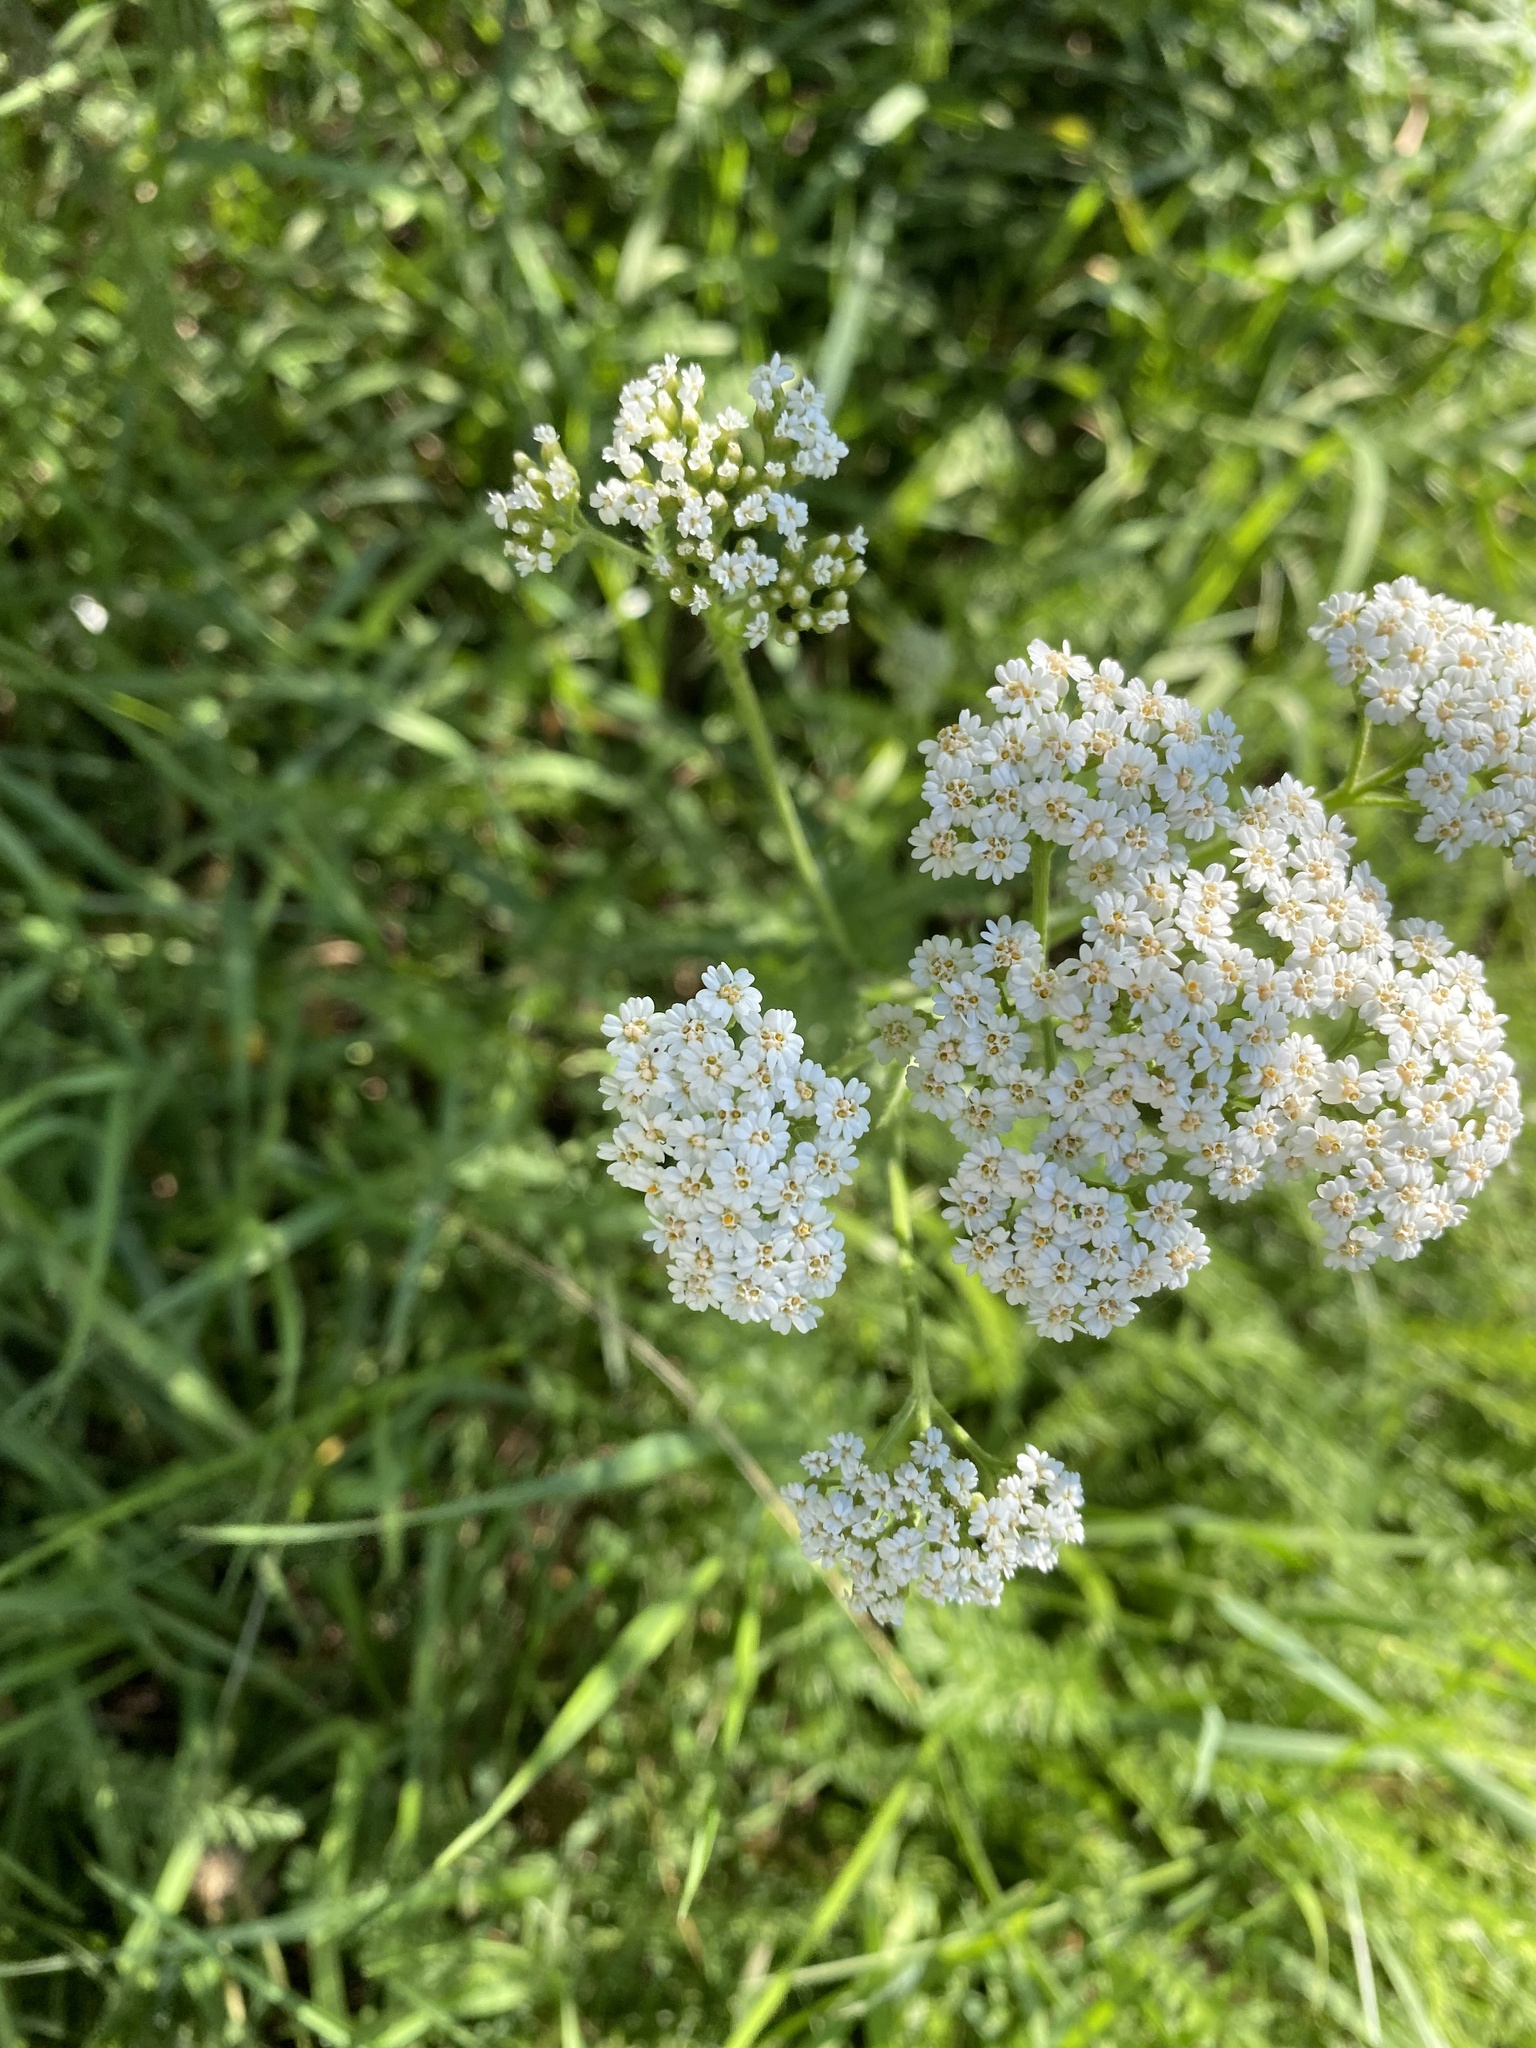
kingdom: Plantae
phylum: Tracheophyta
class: Magnoliopsida
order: Asterales
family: Asteraceae
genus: Achillea
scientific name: Achillea millefolium
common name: Yarrow
